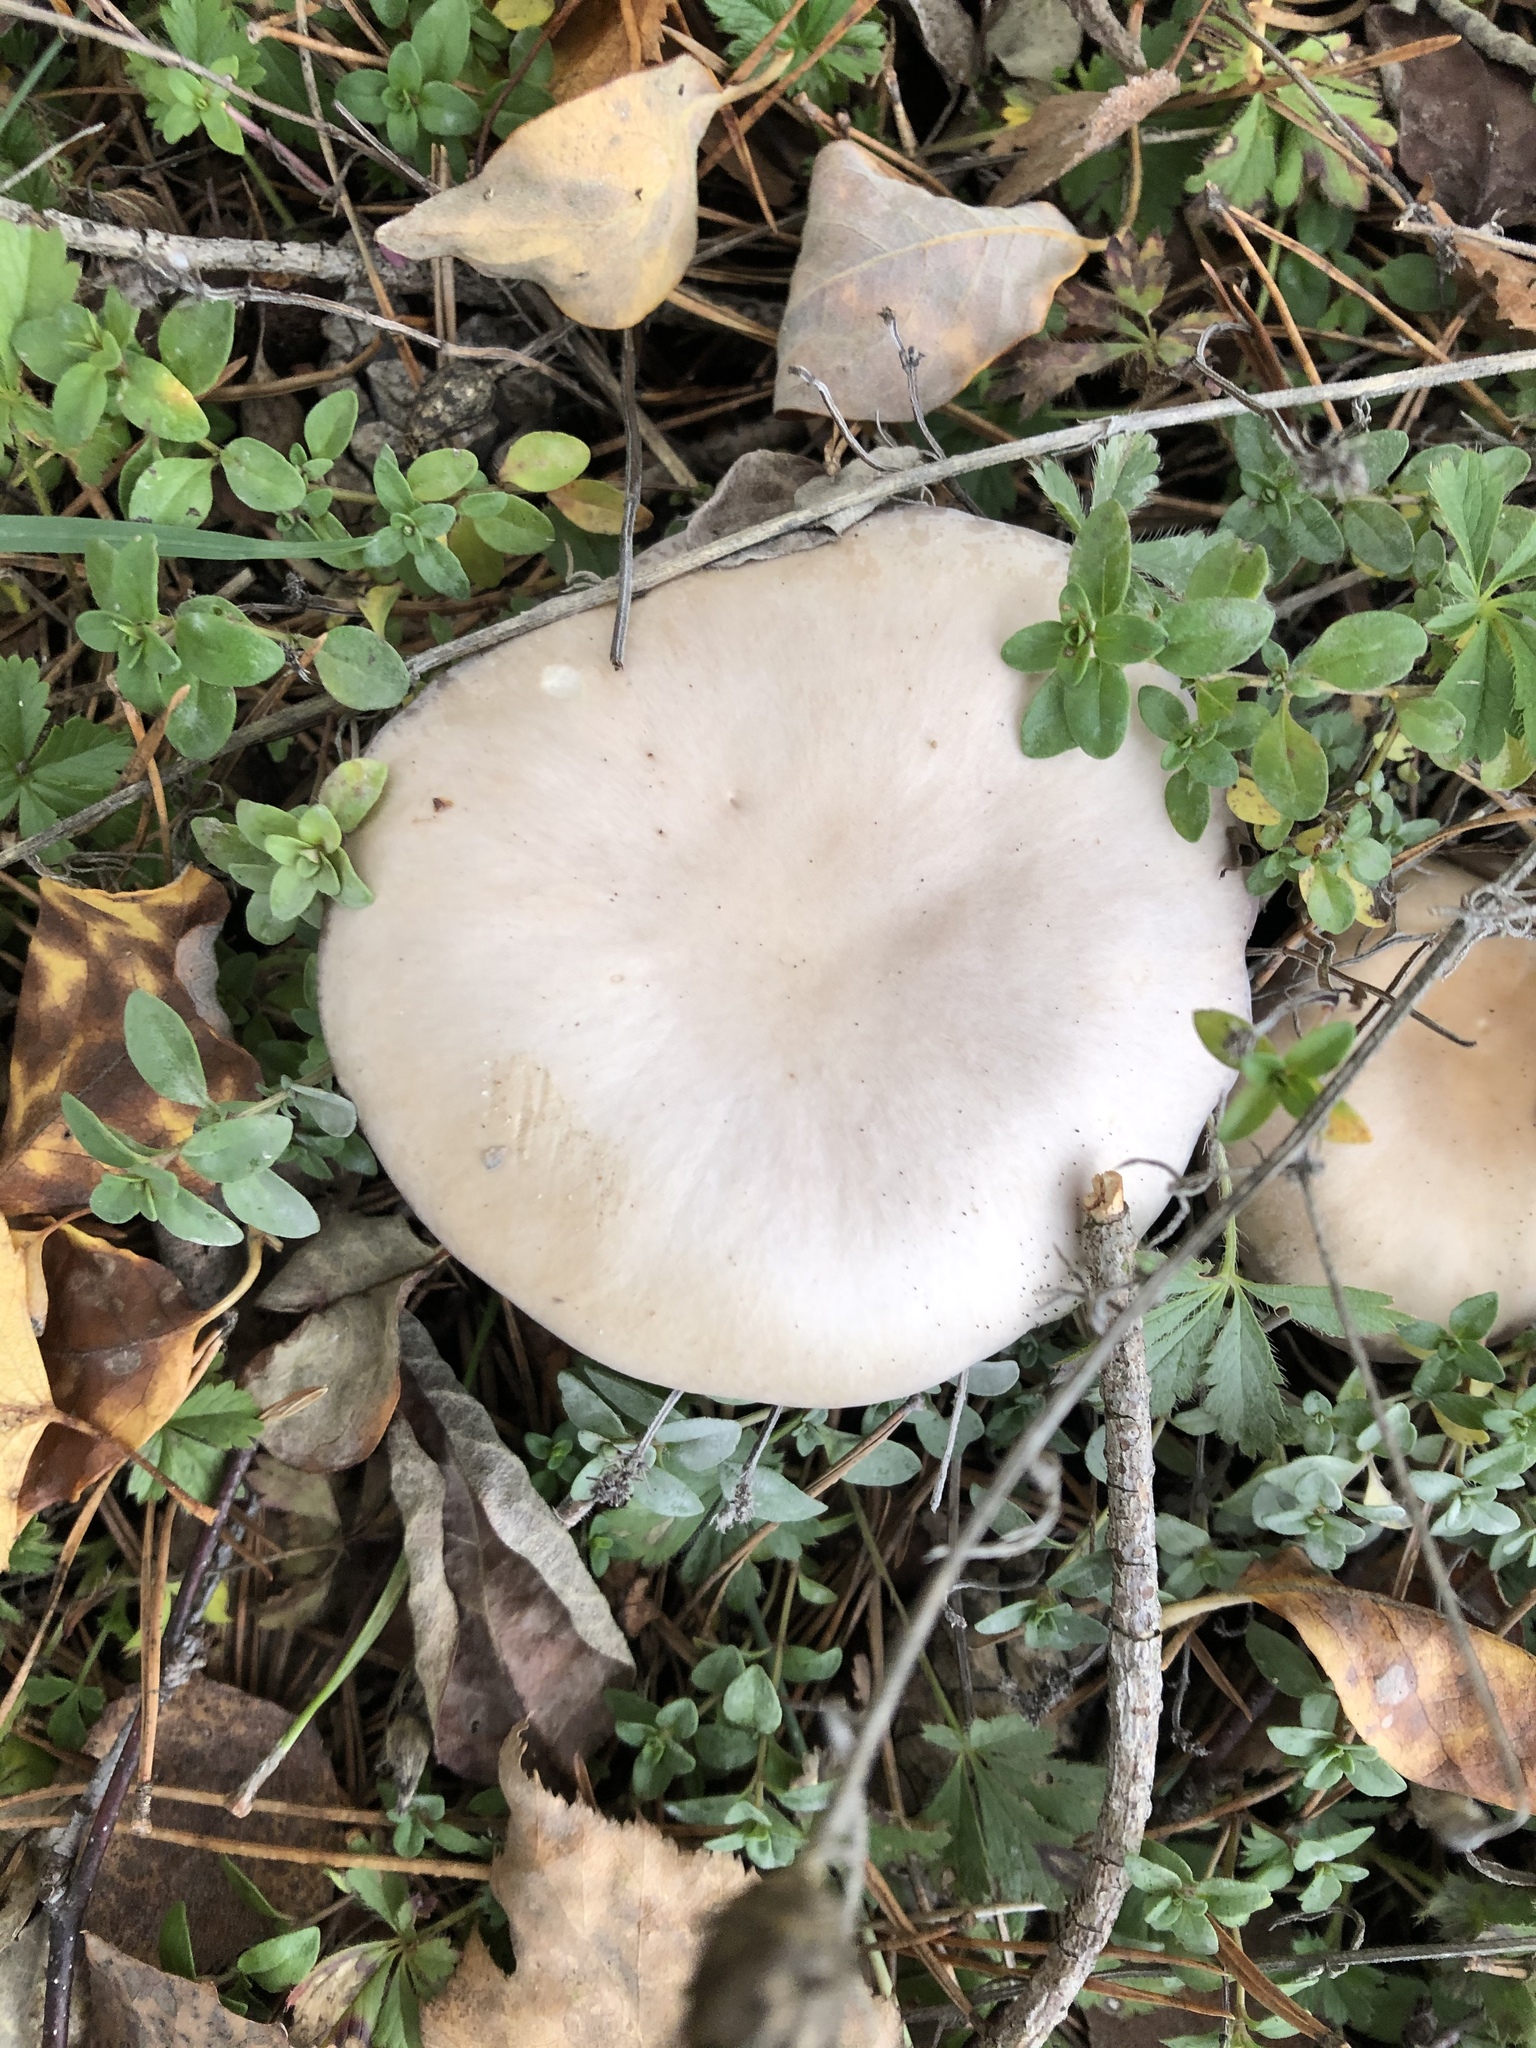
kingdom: Fungi
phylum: Basidiomycota
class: Agaricomycetes
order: Agaricales
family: Tricholomataceae
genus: Collybia
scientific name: Collybia
